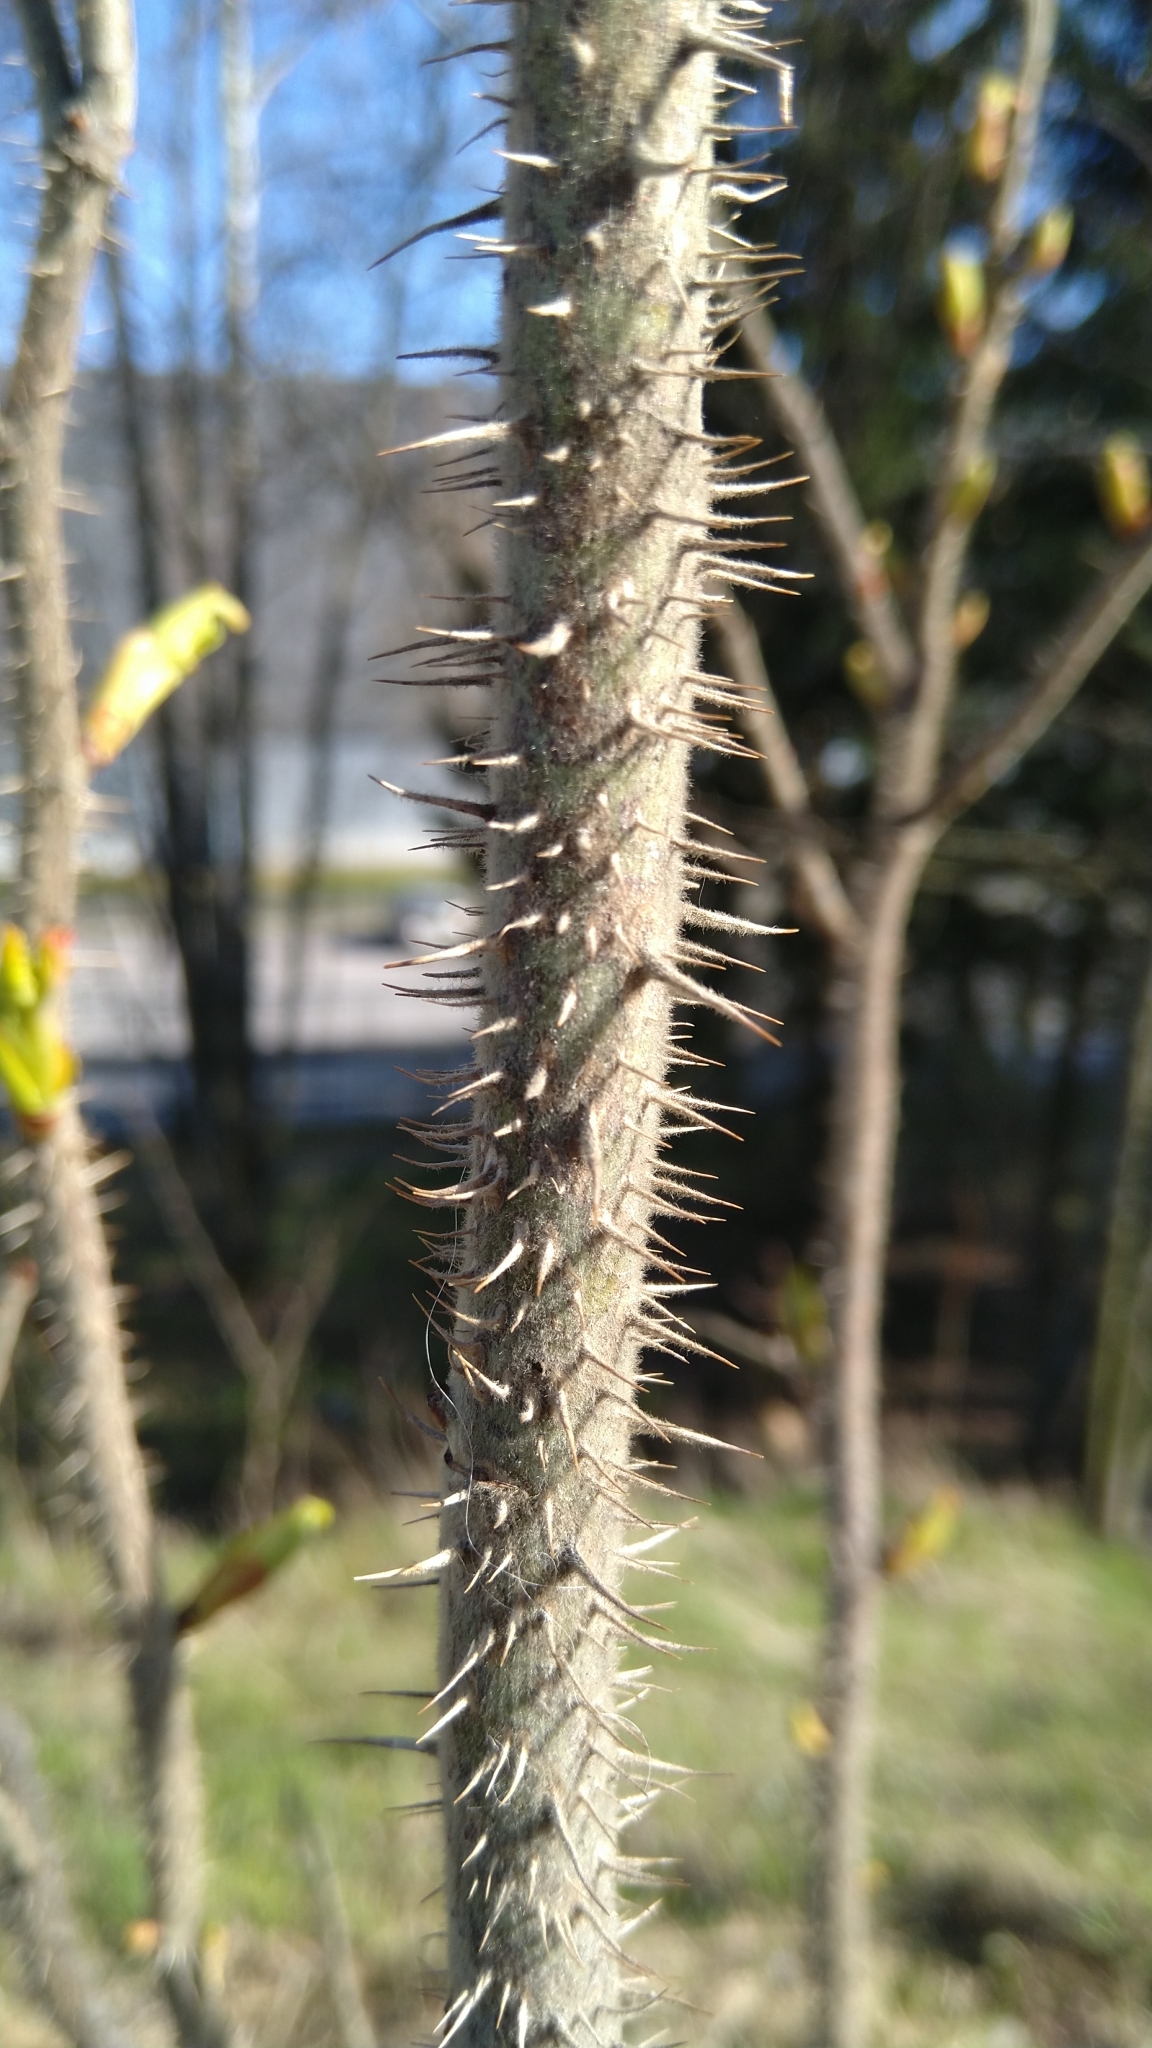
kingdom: Plantae
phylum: Tracheophyta
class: Magnoliopsida
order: Rosales
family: Rosaceae
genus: Rosa
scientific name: Rosa rugosa
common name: Japanese rose
